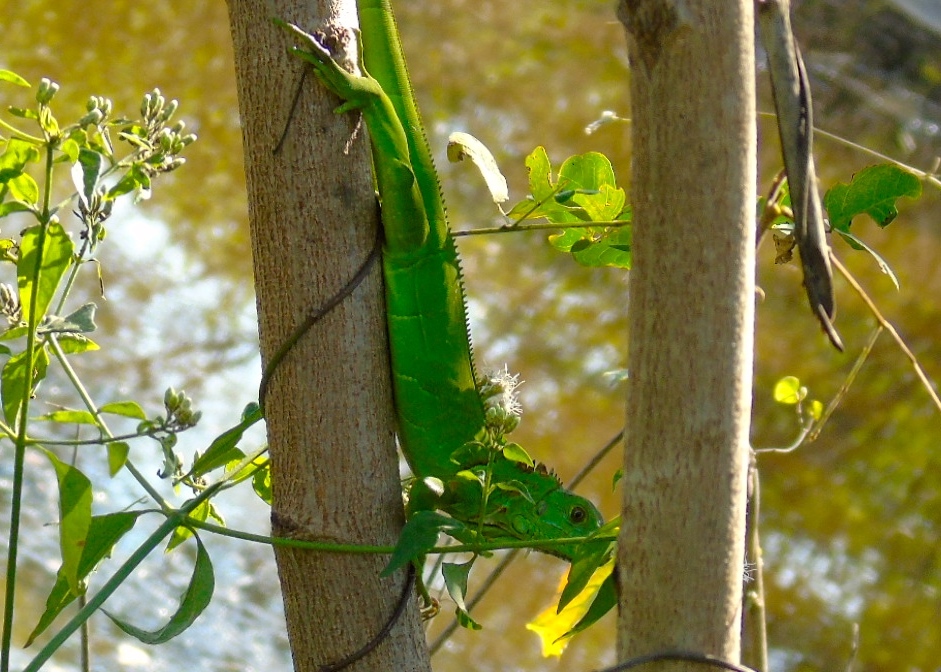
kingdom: Animalia
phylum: Chordata
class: Squamata
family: Iguanidae
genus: Iguana
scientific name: Iguana iguana
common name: Green iguana
